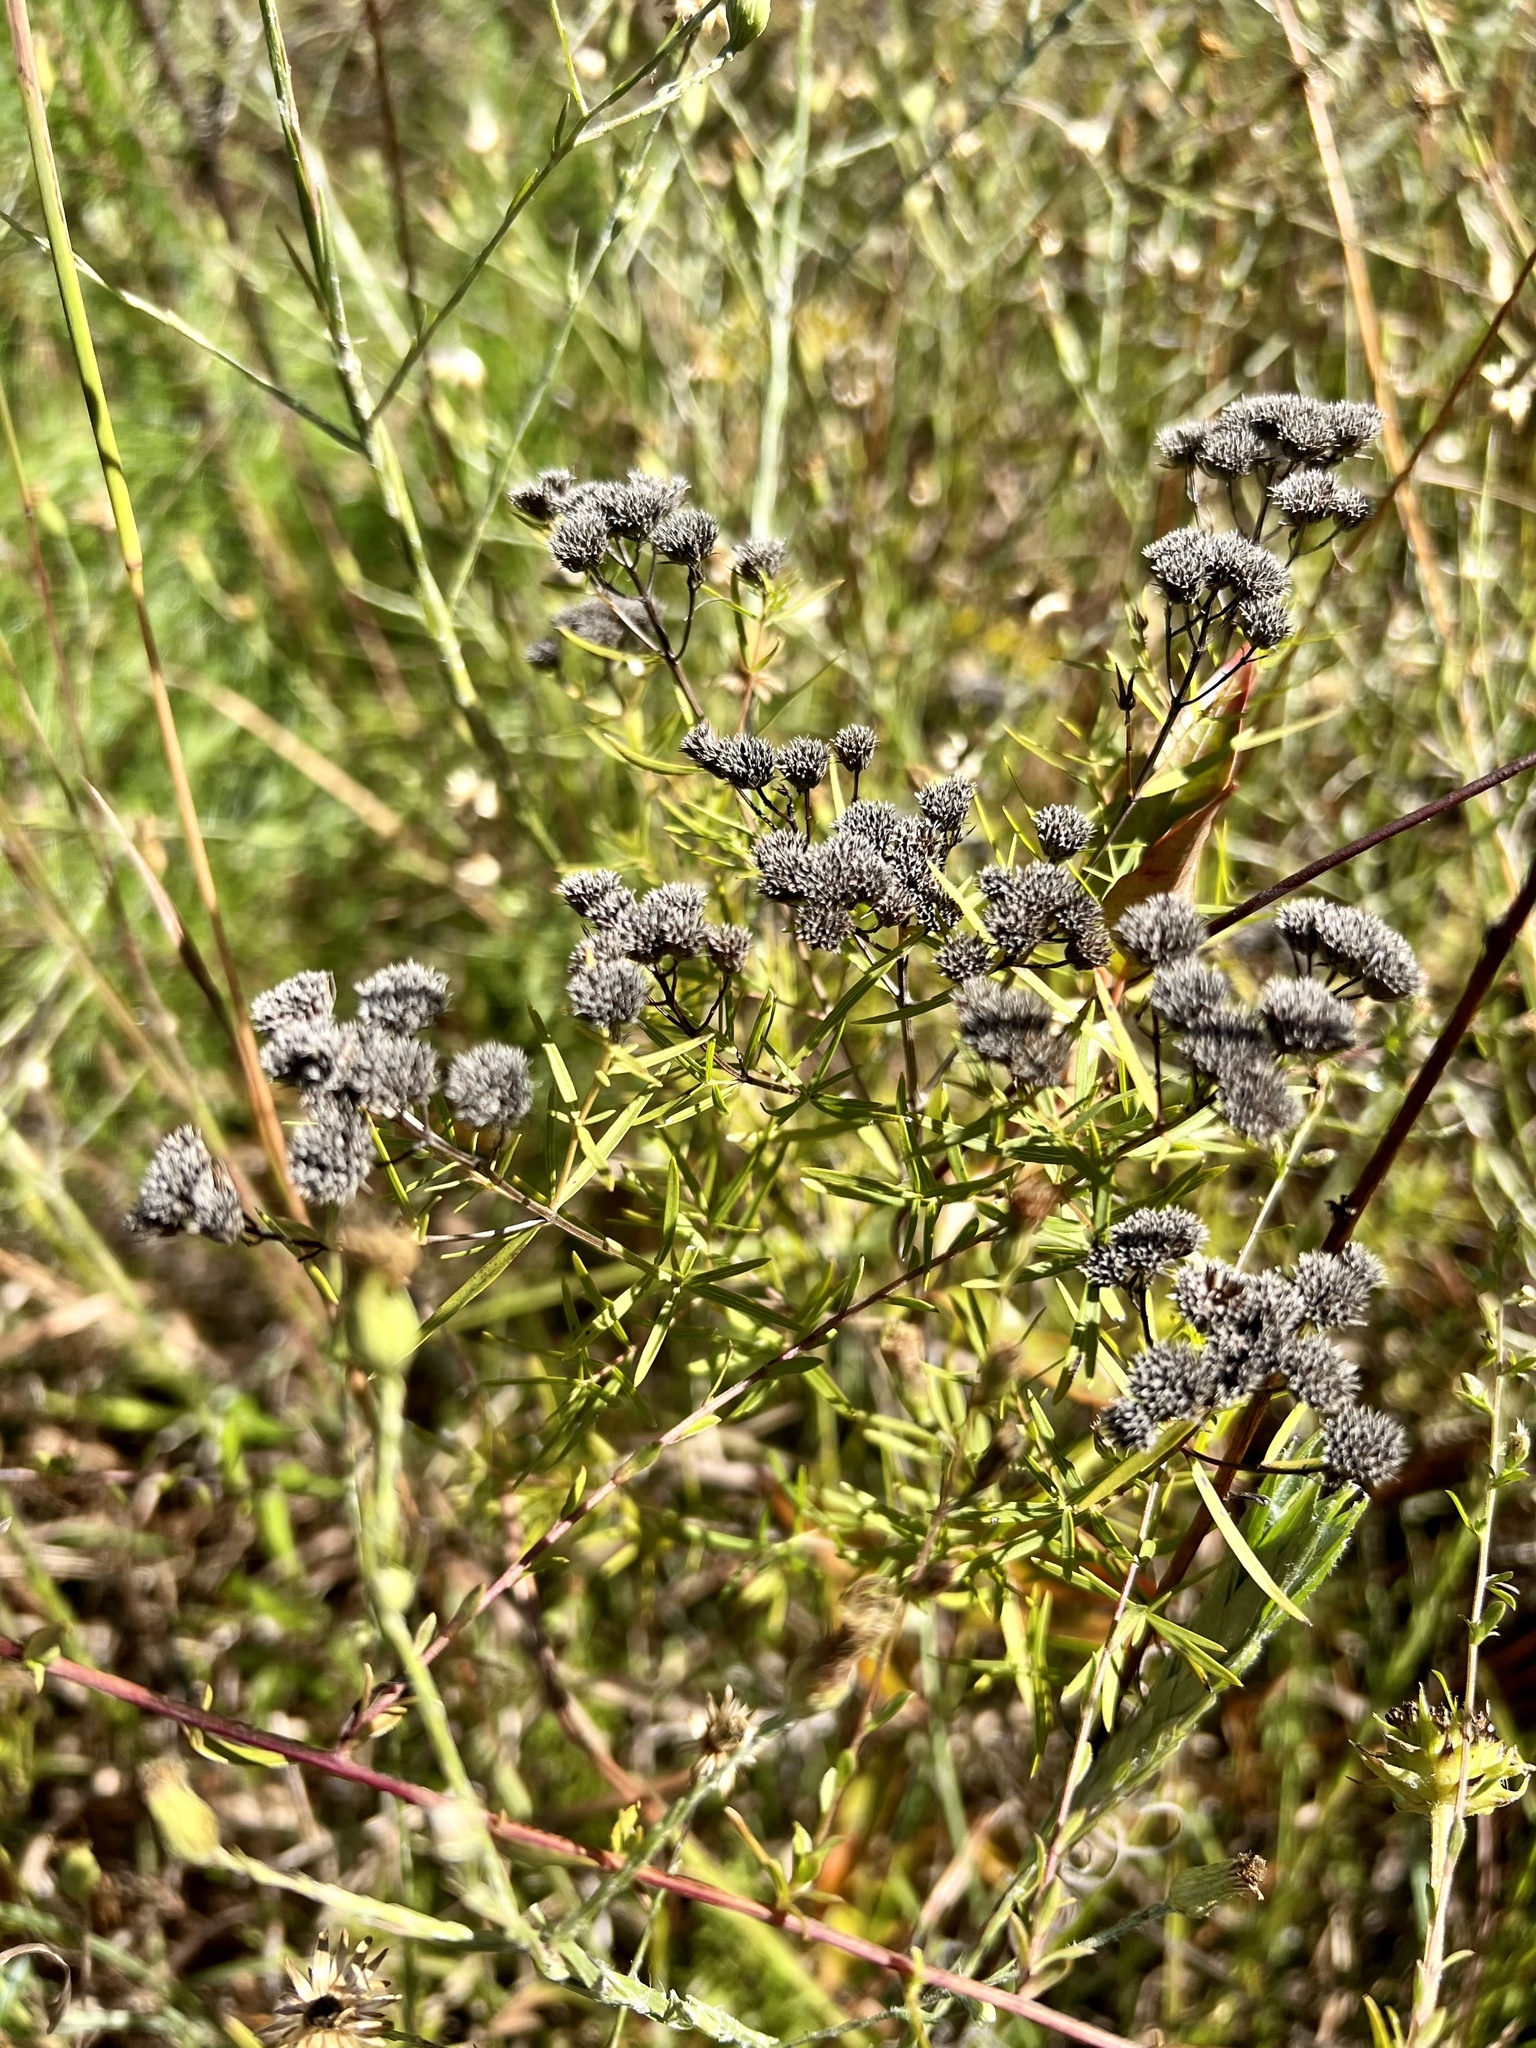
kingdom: Plantae
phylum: Tracheophyta
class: Magnoliopsida
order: Lamiales
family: Lamiaceae
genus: Pycnanthemum
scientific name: Pycnanthemum tenuifolium
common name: Narrow-leaf mountain-mint
